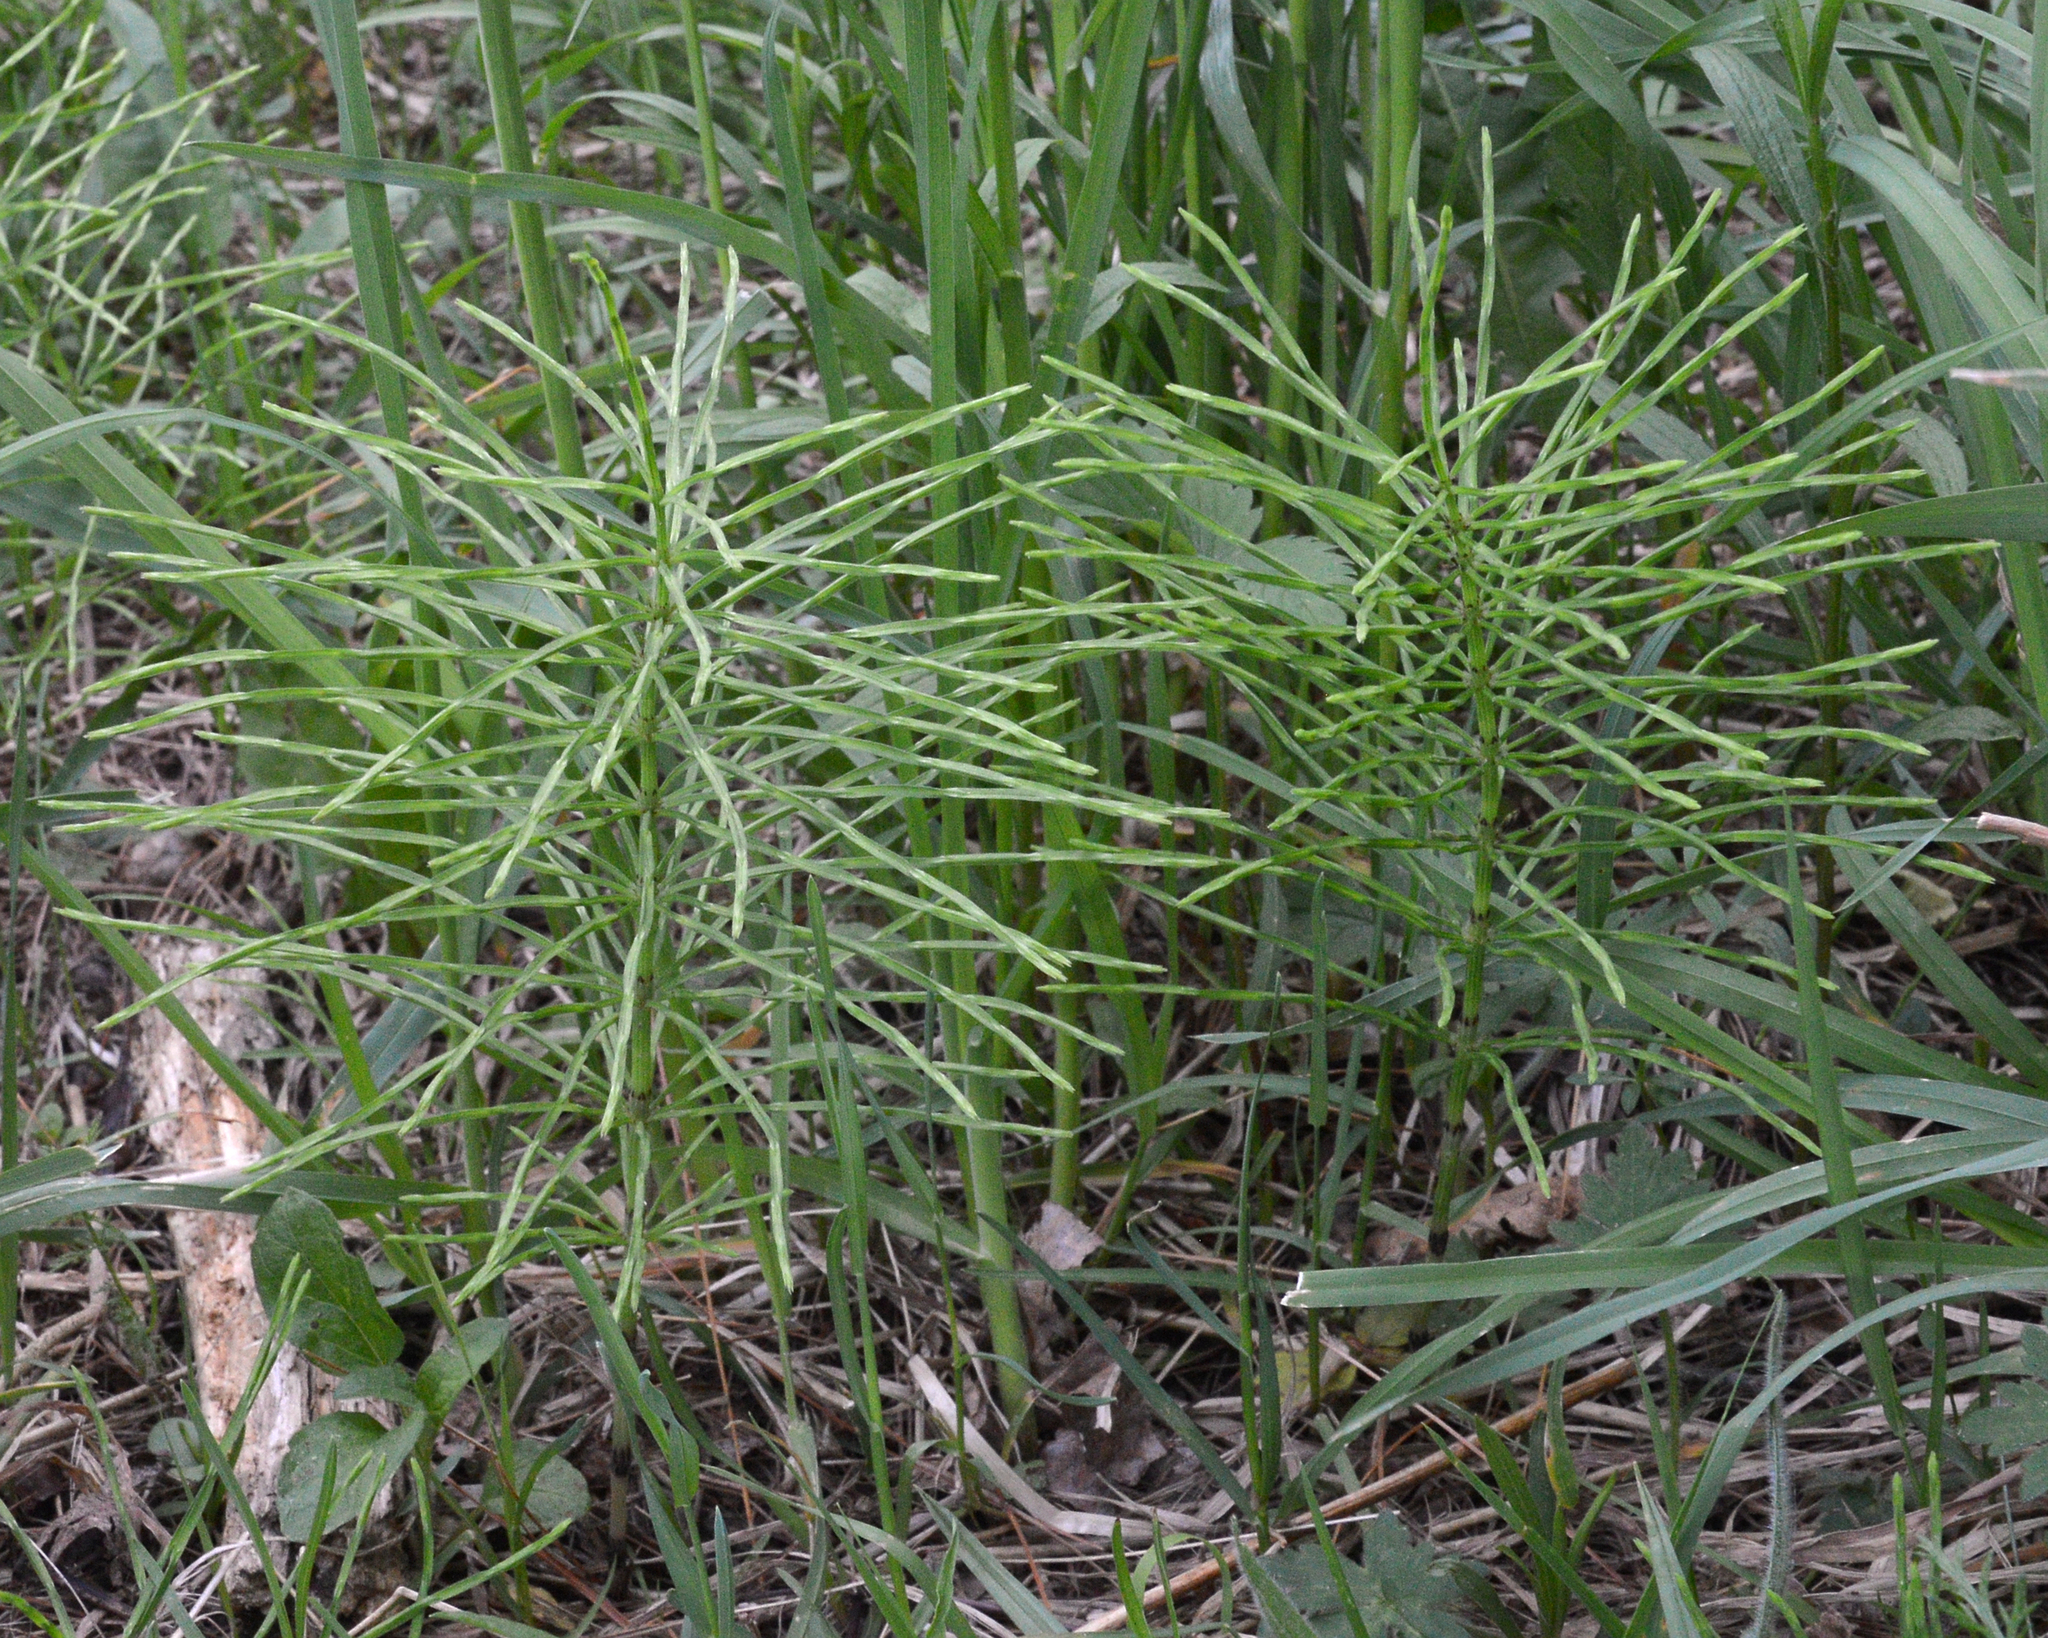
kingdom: Plantae
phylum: Tracheophyta
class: Polypodiopsida
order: Equisetales
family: Equisetaceae
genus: Equisetum
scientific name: Equisetum arvense
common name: Field horsetail
